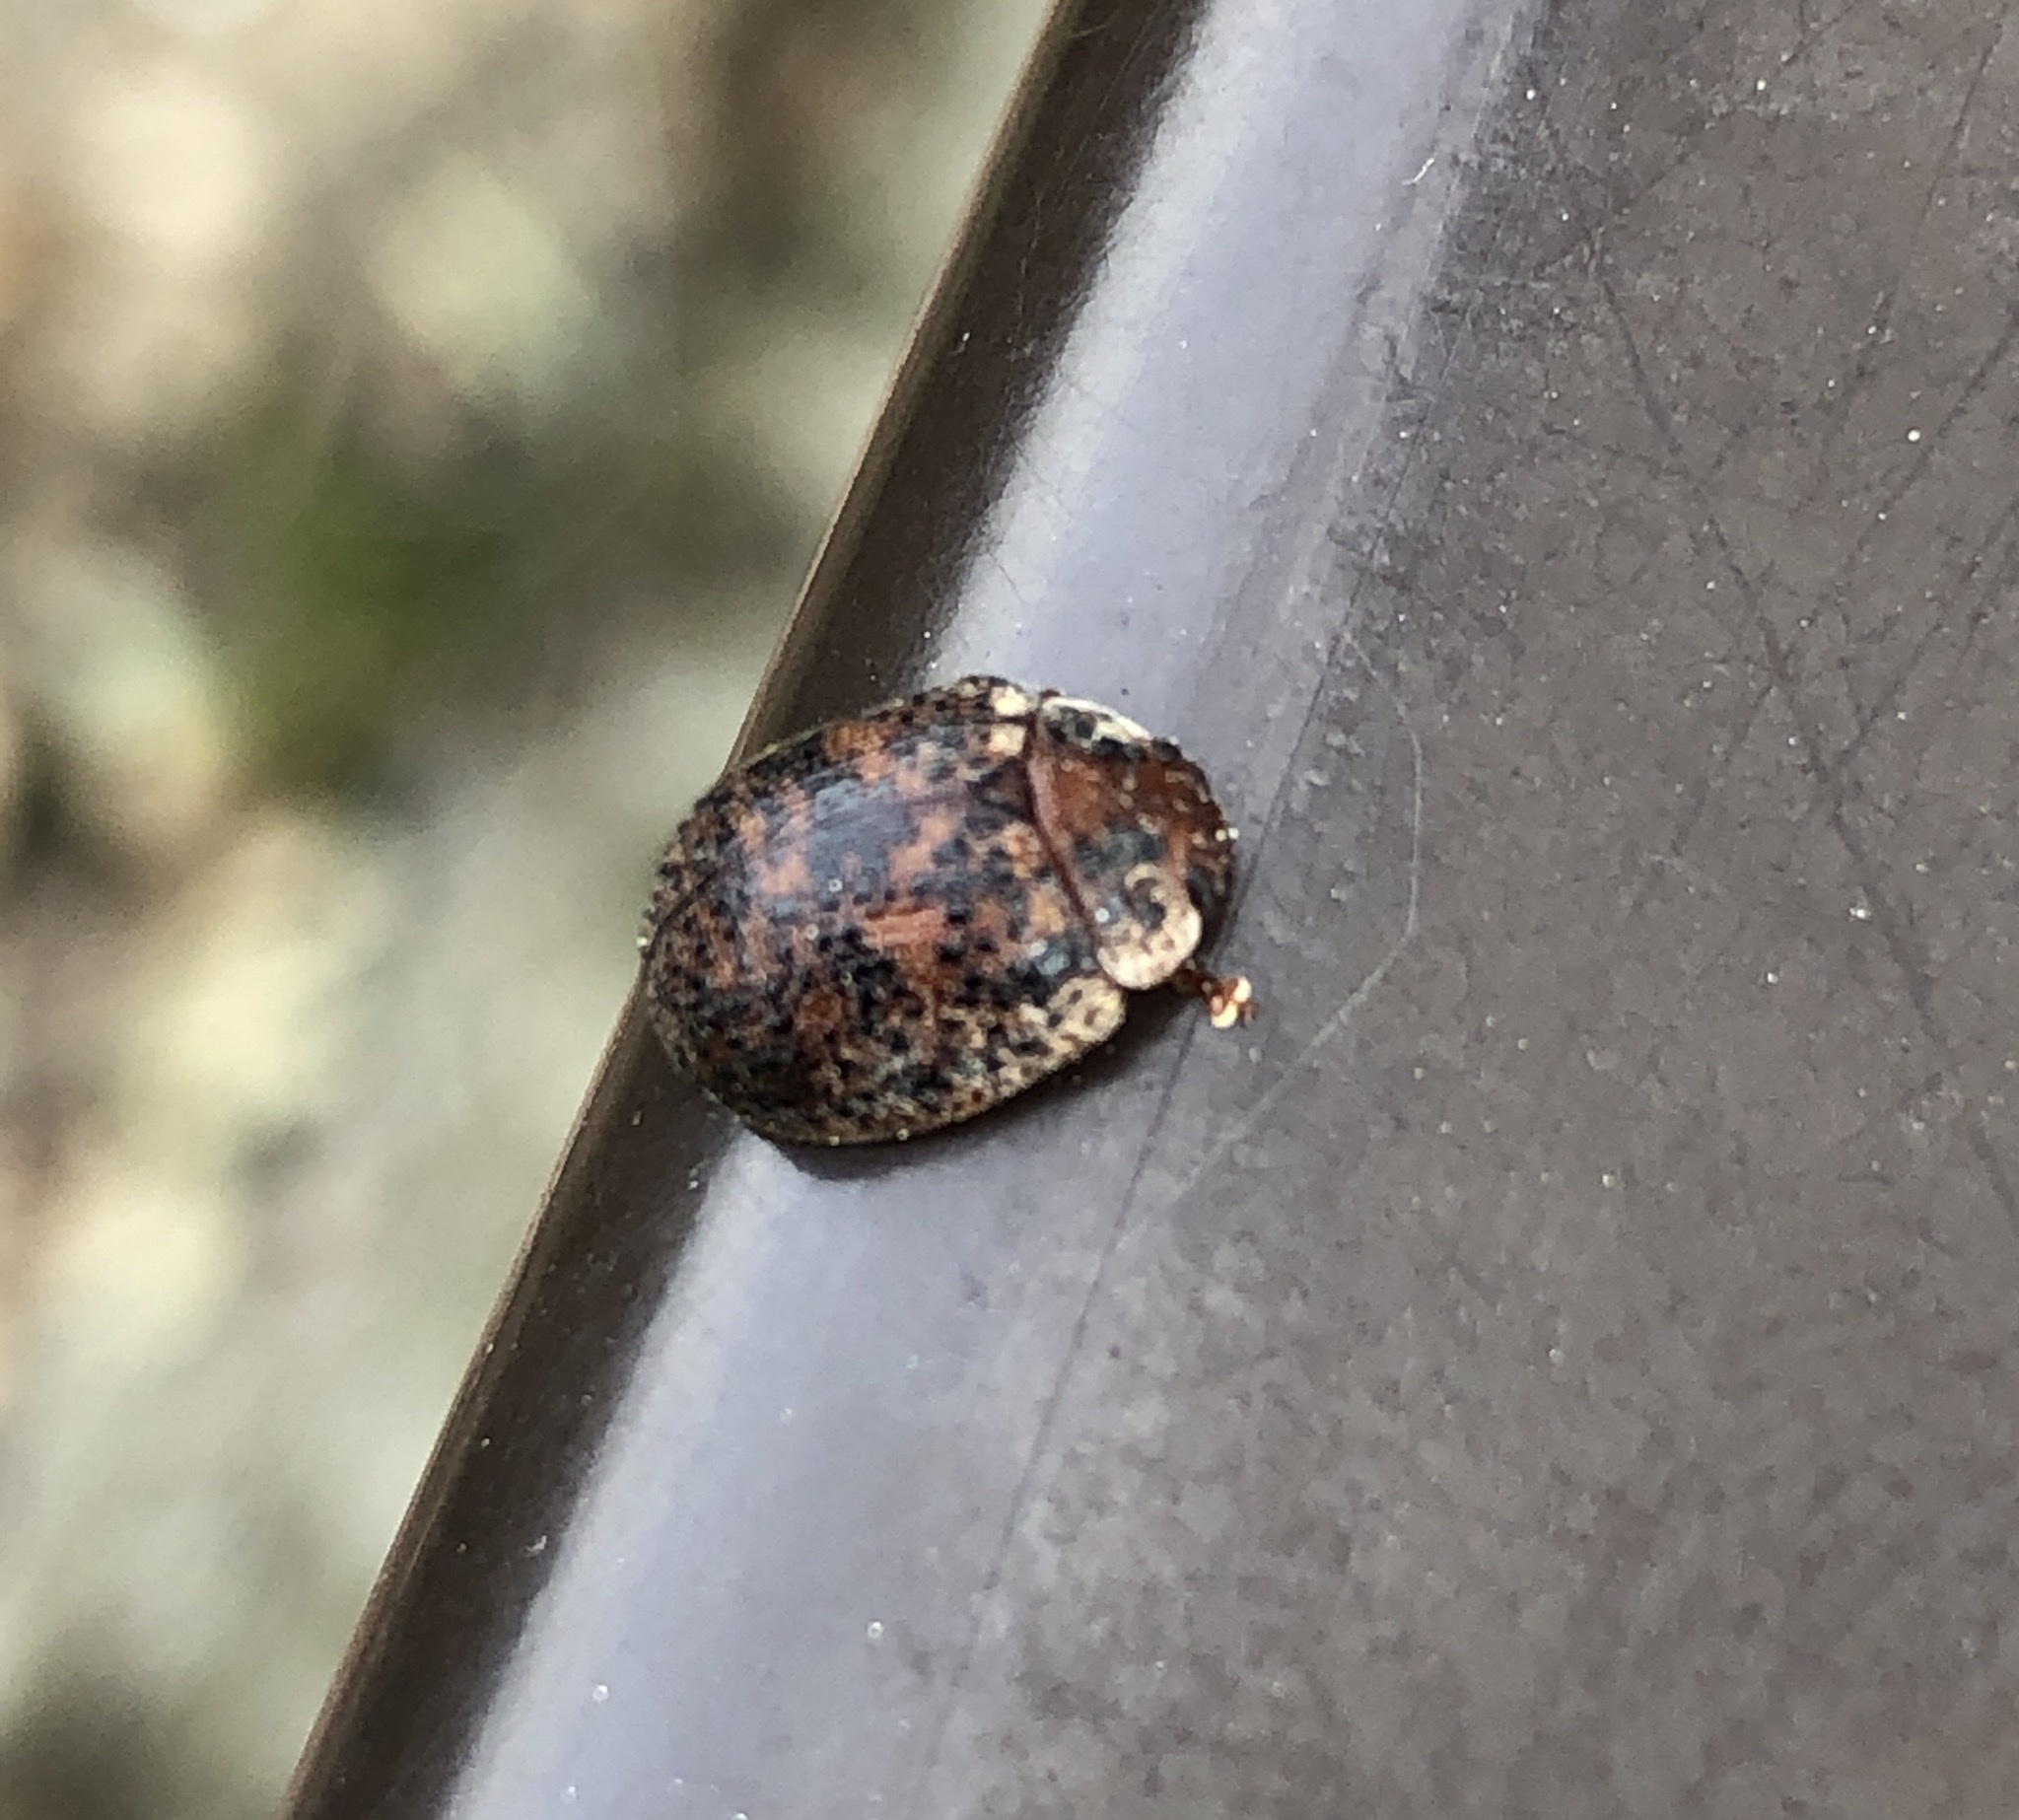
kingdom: Animalia
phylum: Arthropoda
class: Insecta
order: Coleoptera
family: Chrysomelidae
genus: Trachymela
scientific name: Trachymela sloanei
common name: Australian tortoise beetle
